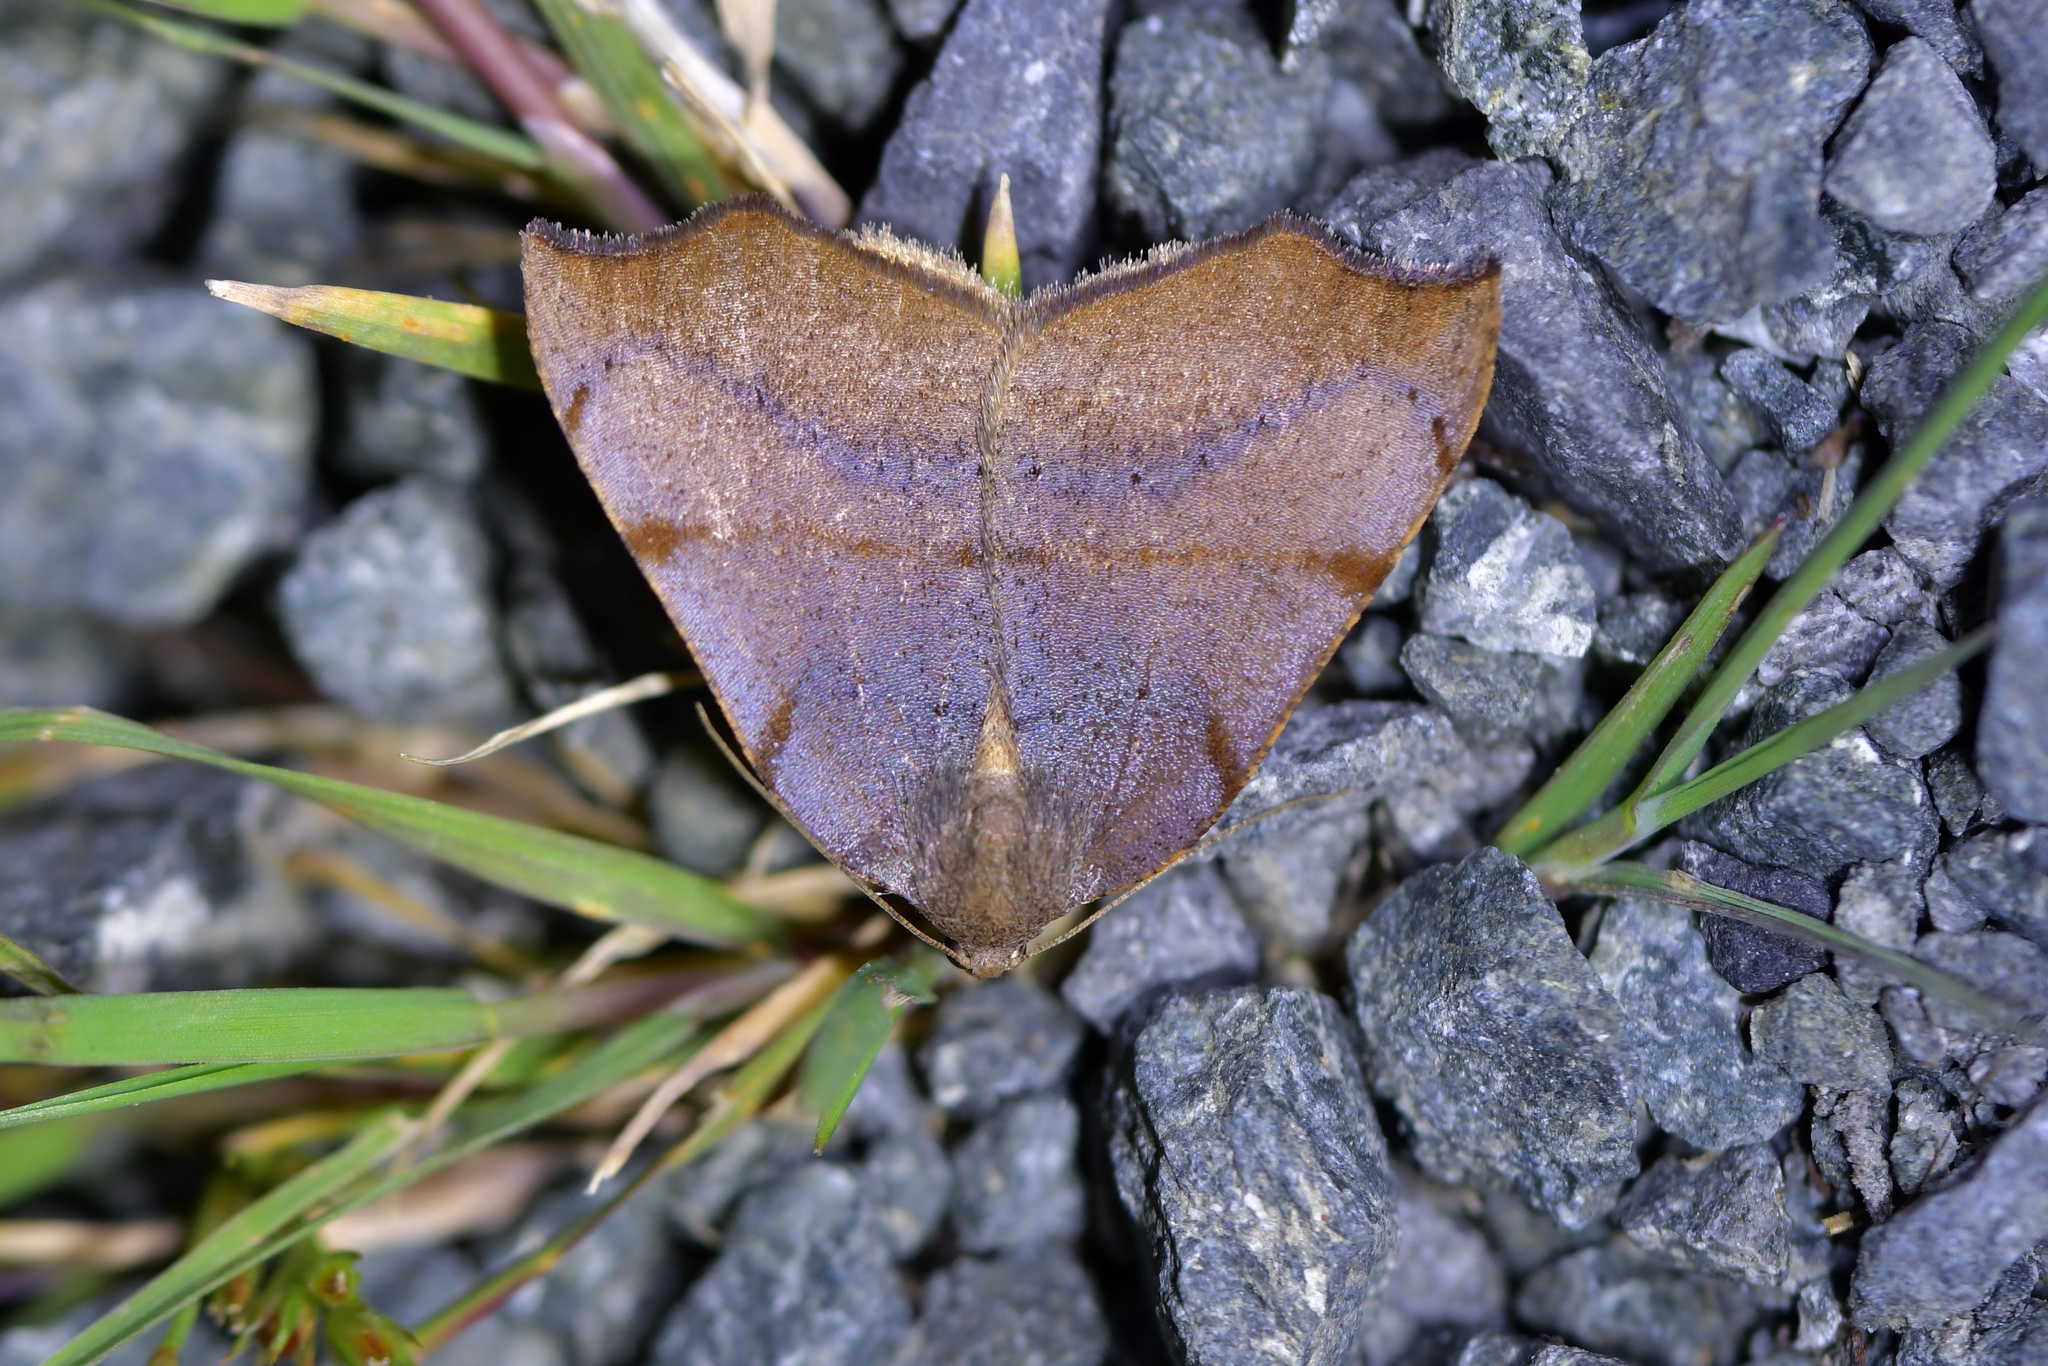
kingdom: Animalia
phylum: Arthropoda
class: Insecta
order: Lepidoptera
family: Geometridae
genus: Sestra
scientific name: Sestra flexata
